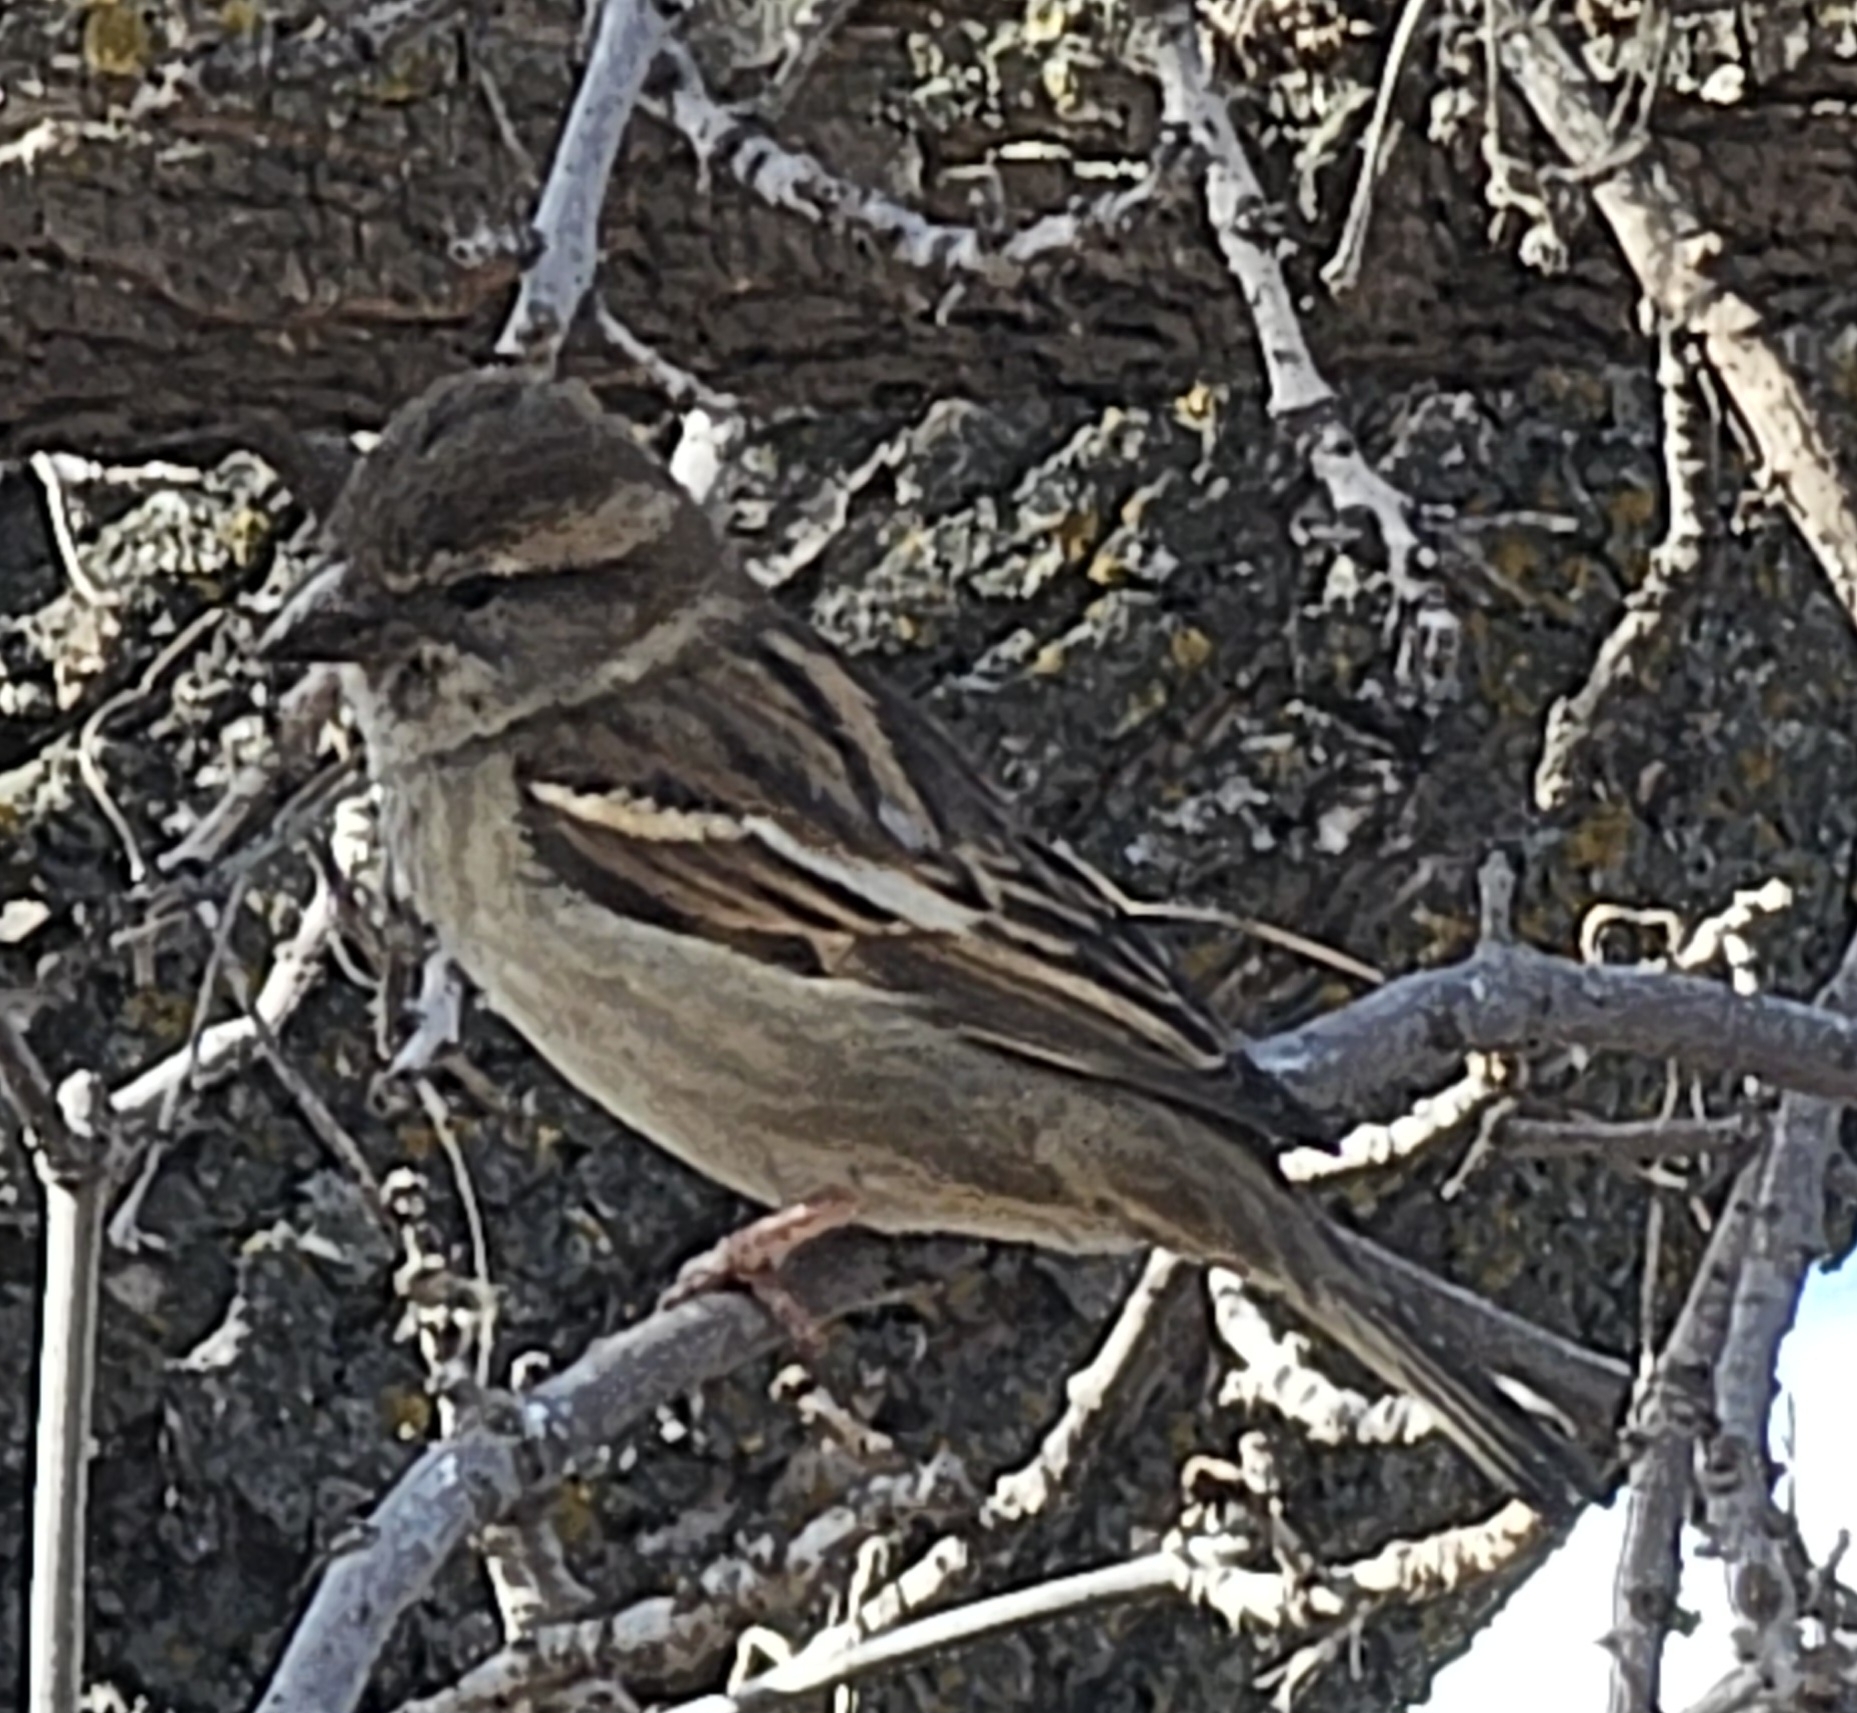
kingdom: Animalia
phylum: Chordata
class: Aves
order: Passeriformes
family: Passeridae
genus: Passer
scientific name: Passer domesticus
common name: House sparrow
